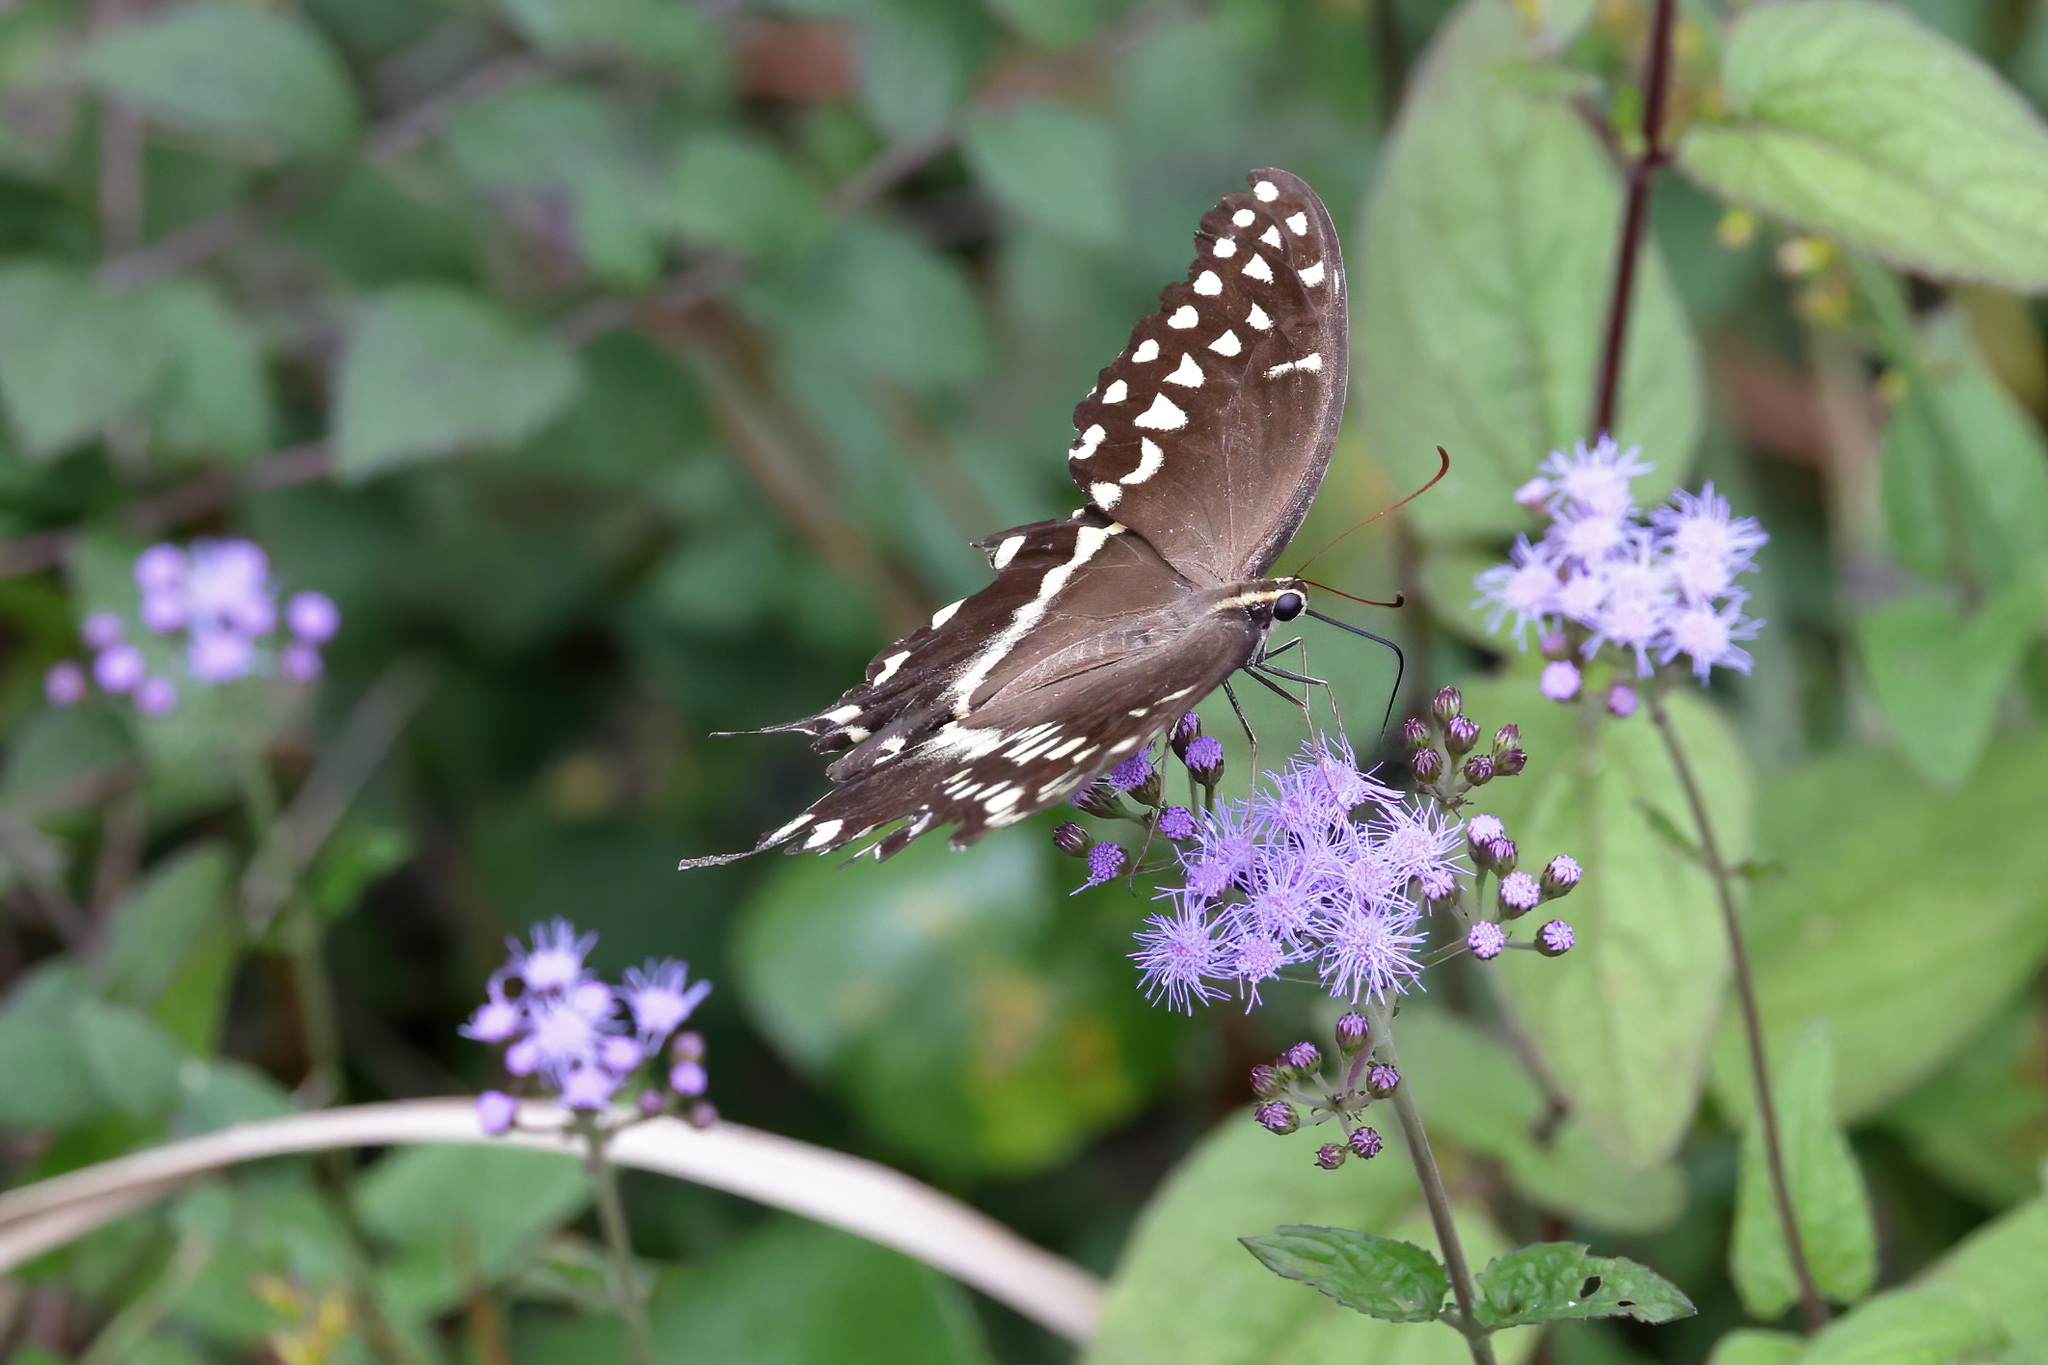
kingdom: Animalia
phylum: Arthropoda
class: Insecta
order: Lepidoptera
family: Papilionidae
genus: Papilio
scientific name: Papilio palamedes
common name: Palamedes swallowtail
